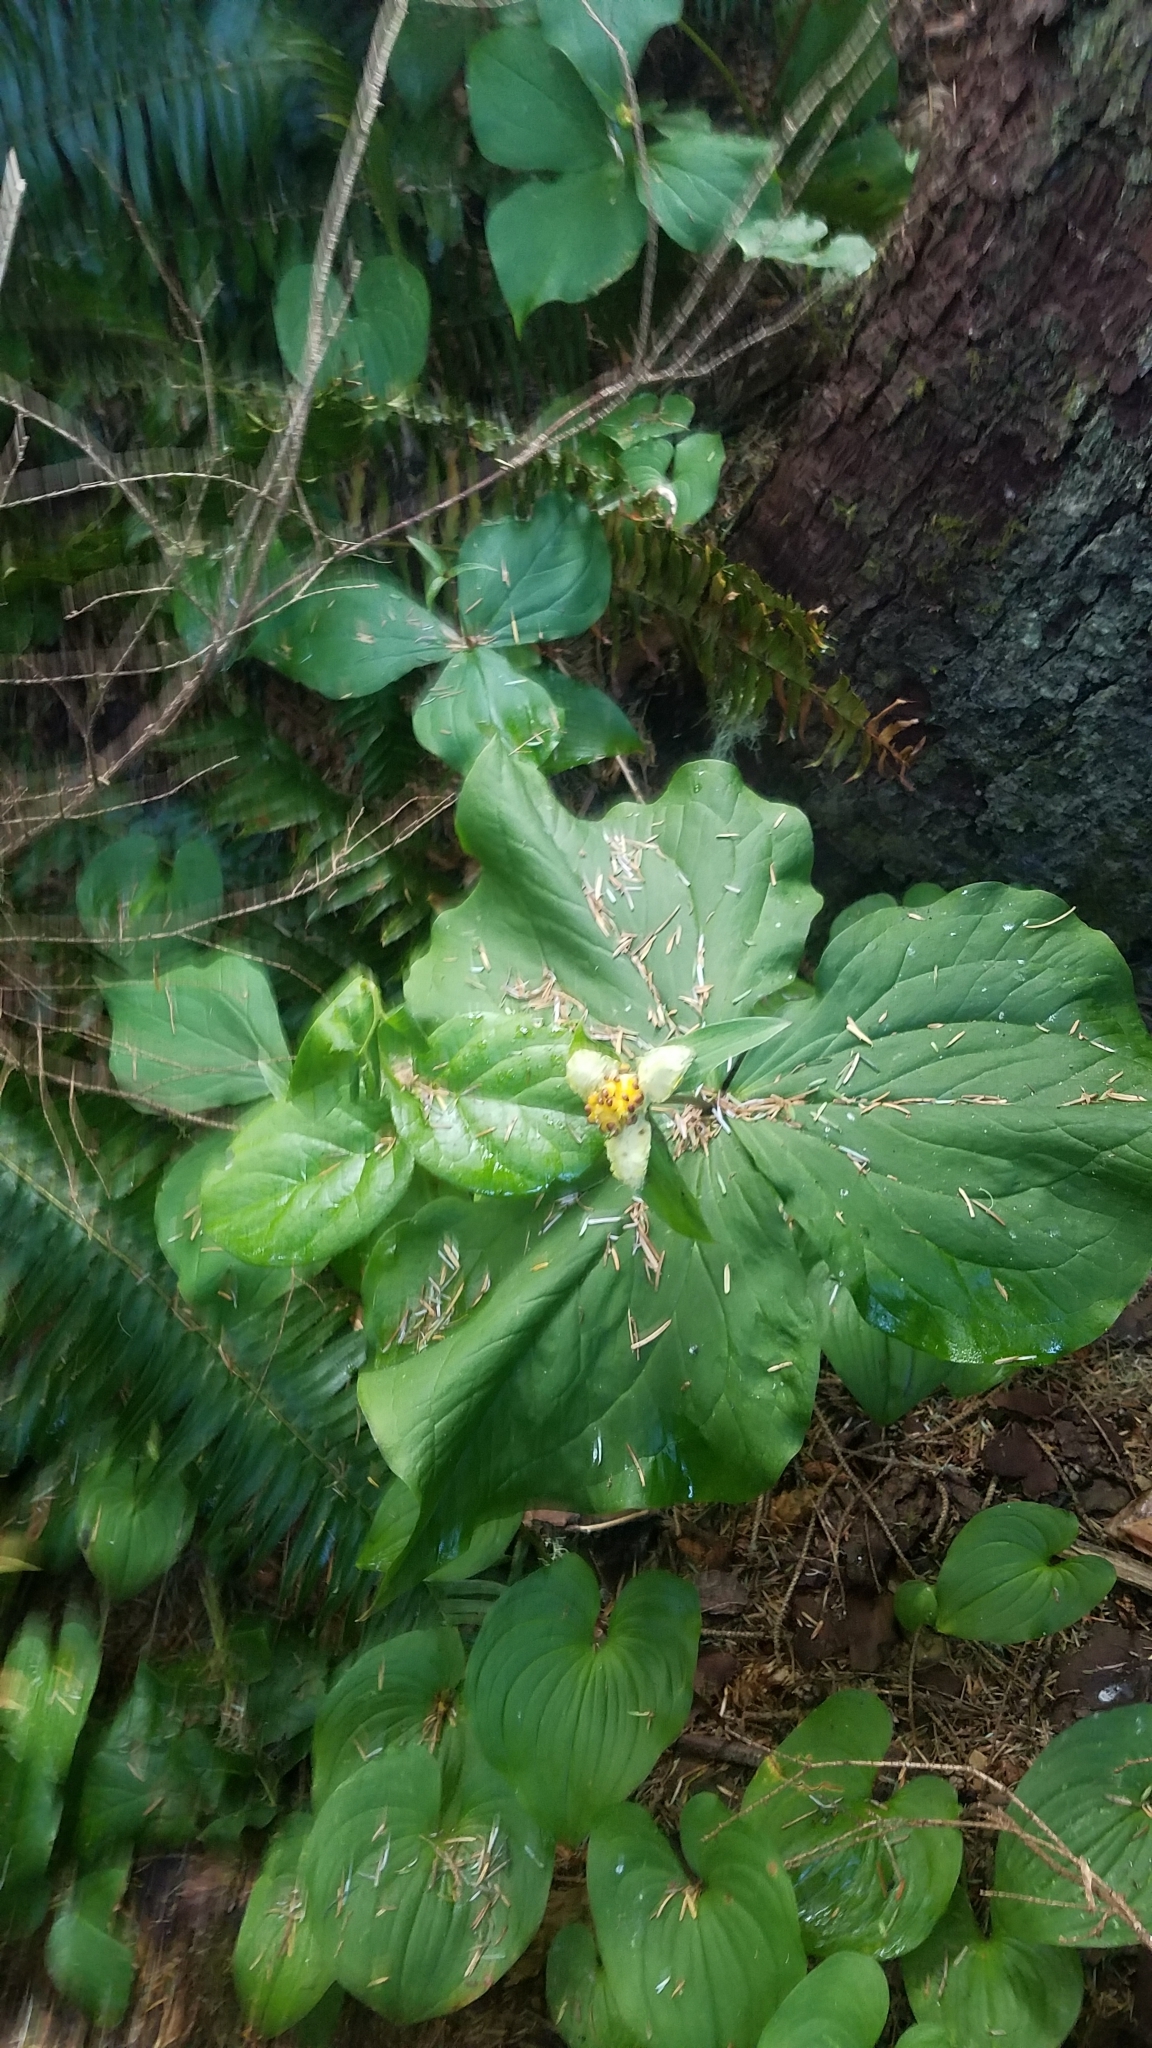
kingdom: Plantae
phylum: Tracheophyta
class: Liliopsida
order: Liliales
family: Melanthiaceae
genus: Trillium
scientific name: Trillium ovatum
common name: Pacific trillium
